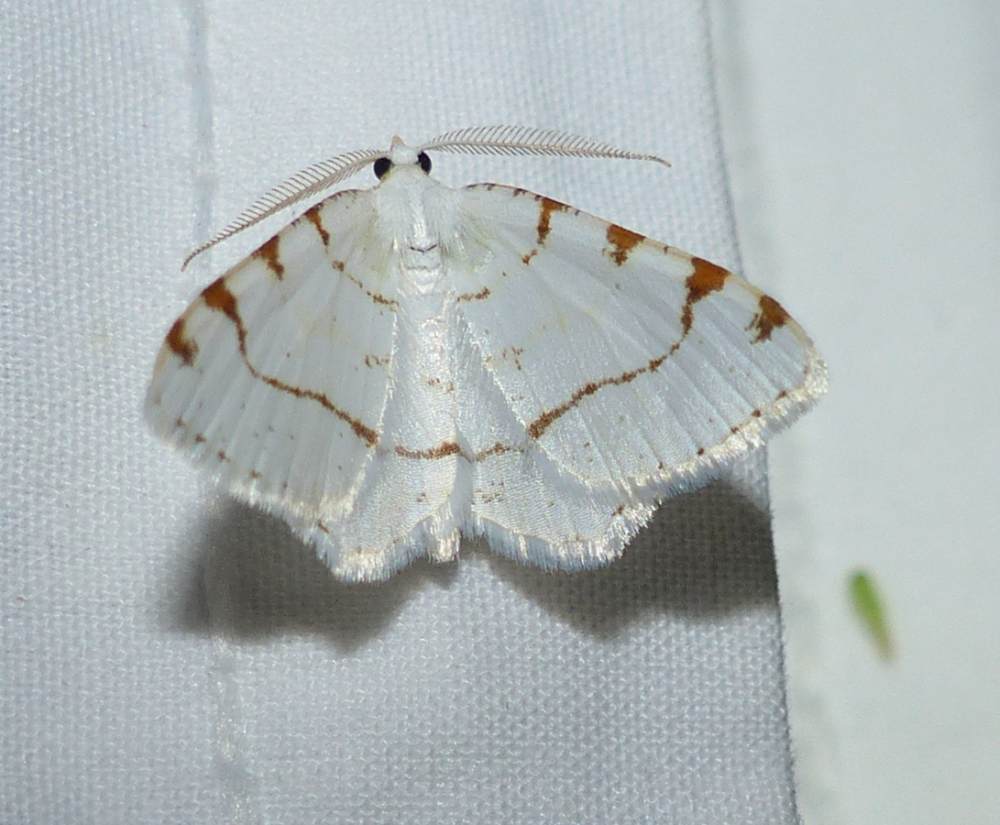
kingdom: Animalia
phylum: Arthropoda
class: Insecta
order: Lepidoptera
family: Geometridae
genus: Macaria
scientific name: Macaria pustularia
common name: Lesser maple spanworm moth
